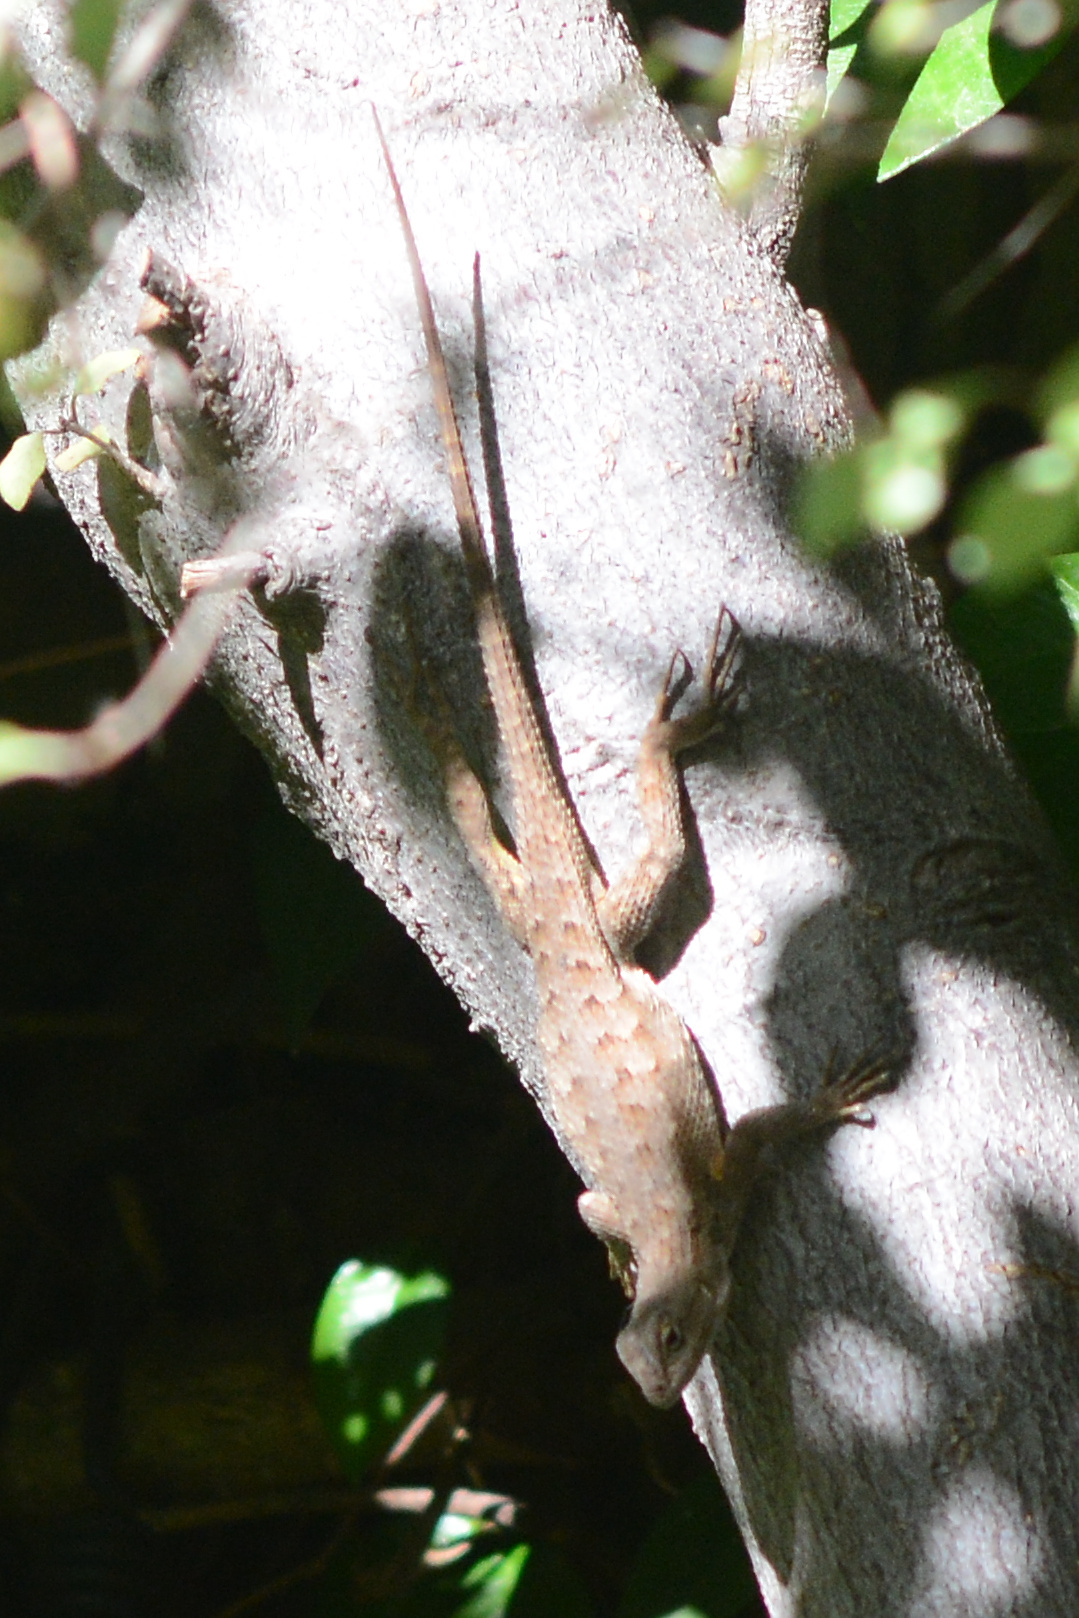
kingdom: Animalia
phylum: Chordata
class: Squamata
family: Phrynosomatidae
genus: Sceloporus
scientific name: Sceloporus occidentalis
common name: Western fence lizard
